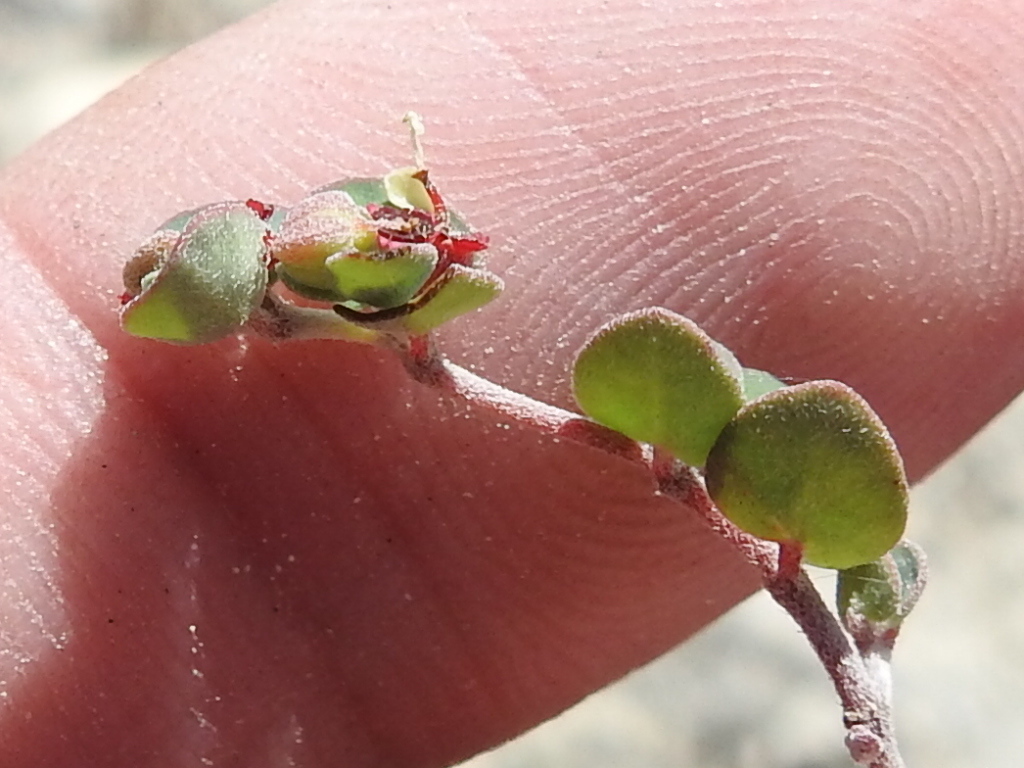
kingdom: Plantae
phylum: Tracheophyta
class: Magnoliopsida
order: Malpighiales
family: Euphorbiaceae
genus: Euphorbia
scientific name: Euphorbia cinerascens
